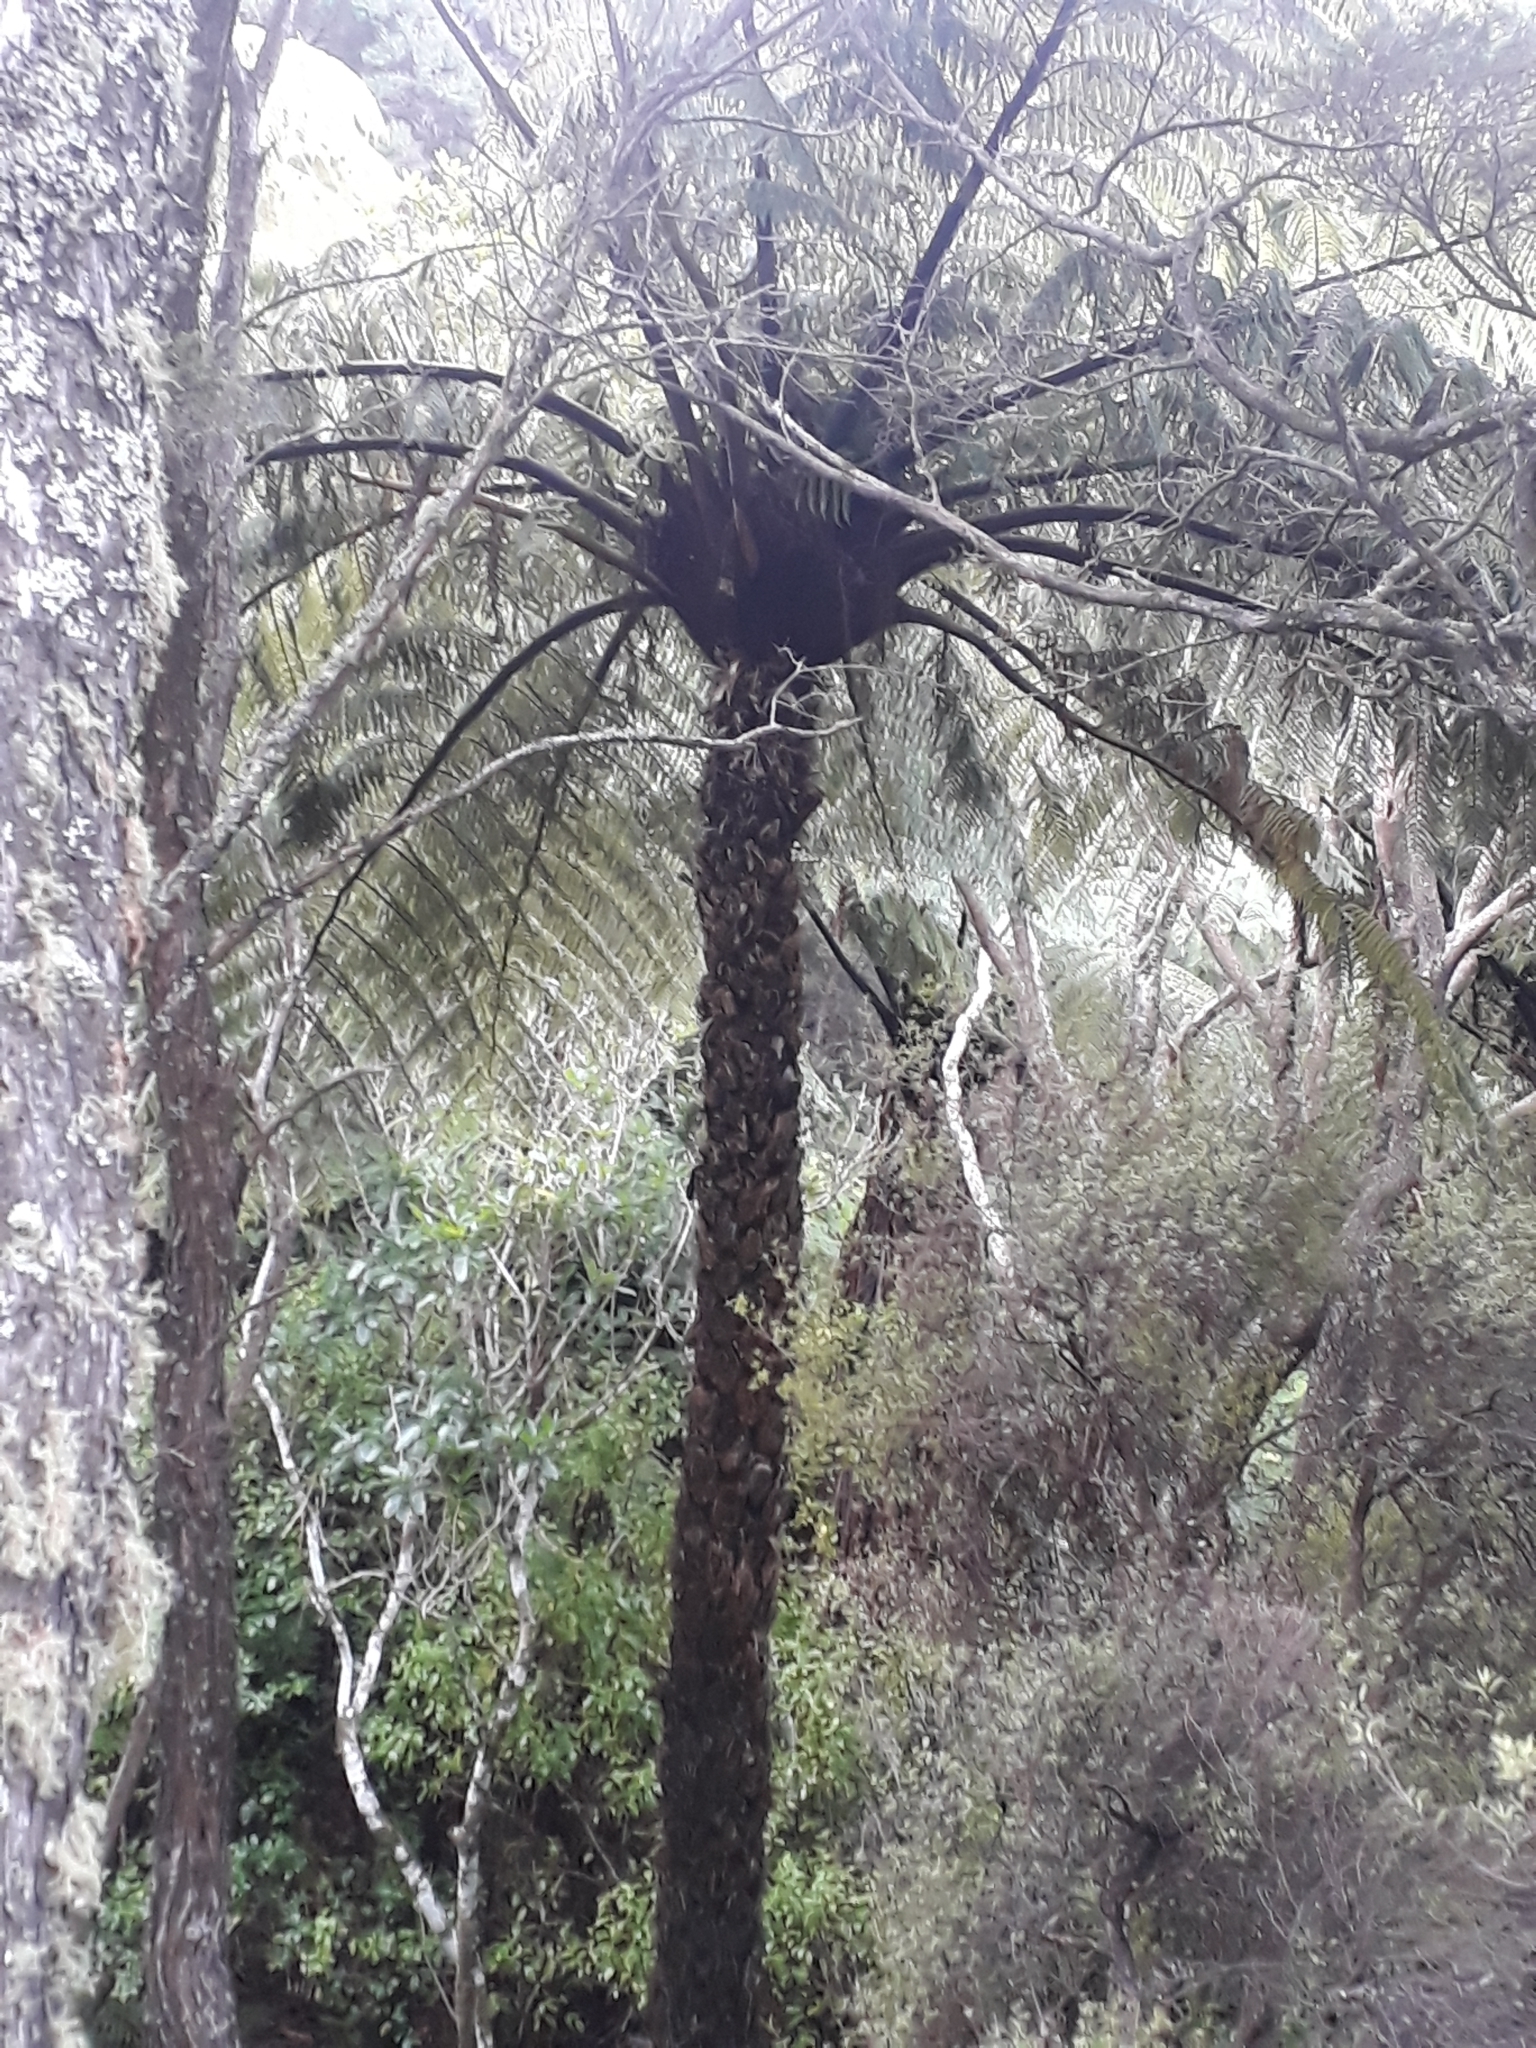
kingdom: Plantae
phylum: Tracheophyta
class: Polypodiopsida
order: Cyatheales
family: Cyatheaceae
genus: Sphaeropteris
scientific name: Sphaeropteris medullaris
